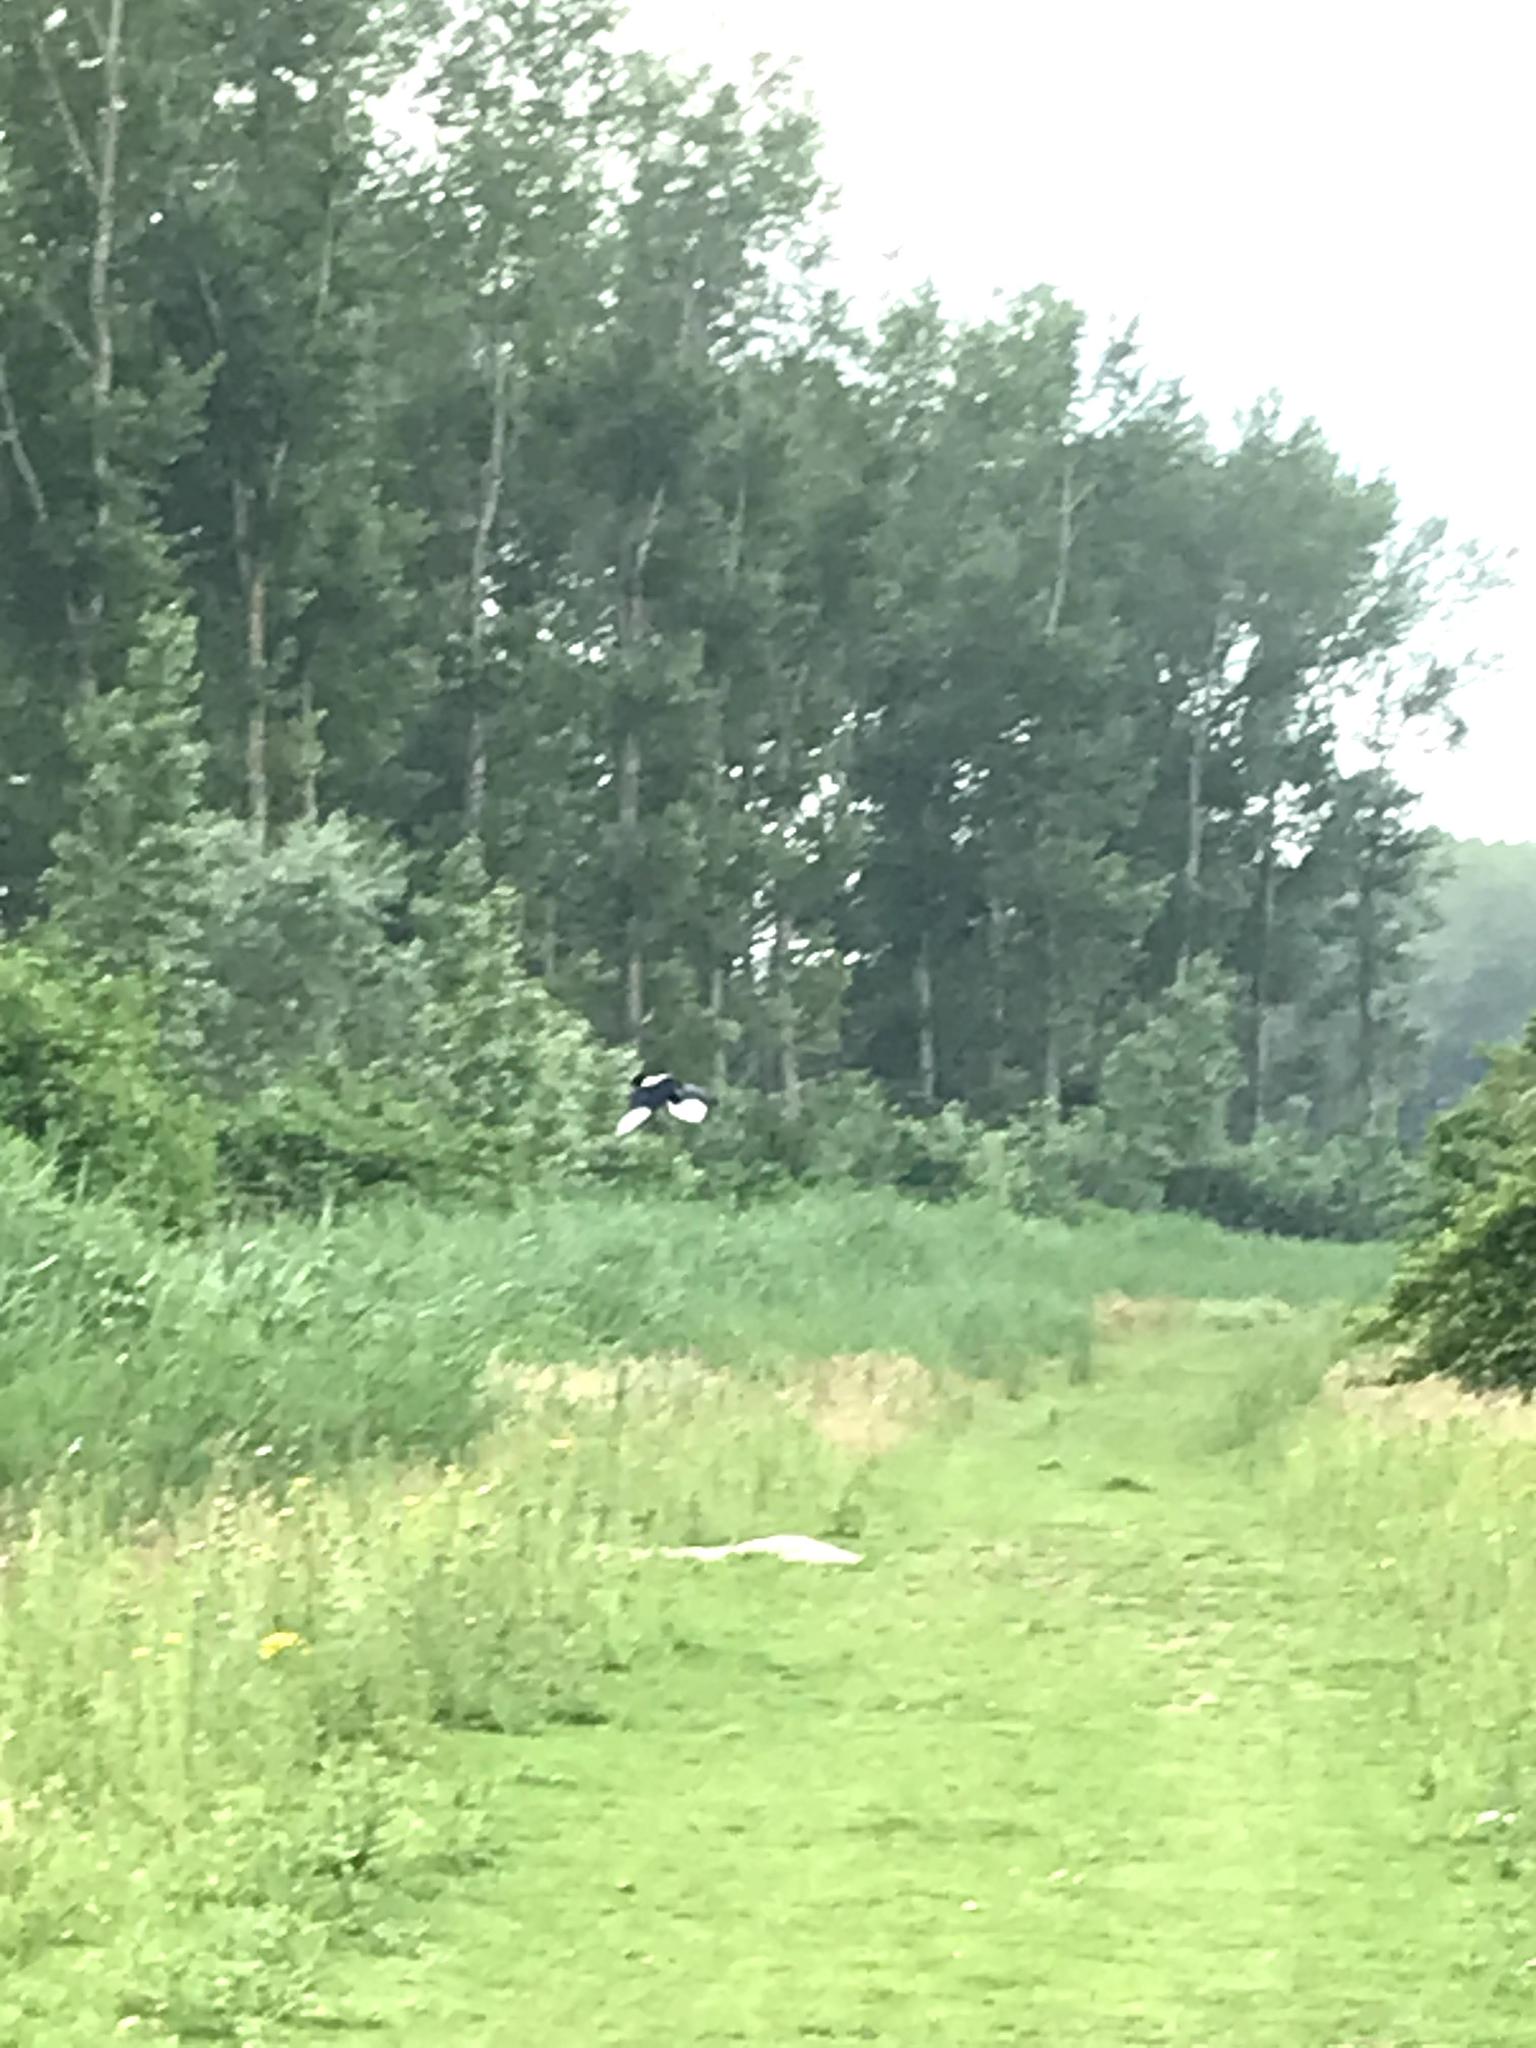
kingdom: Animalia
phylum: Chordata
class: Aves
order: Passeriformes
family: Corvidae
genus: Pica
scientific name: Pica pica
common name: Eurasian magpie
